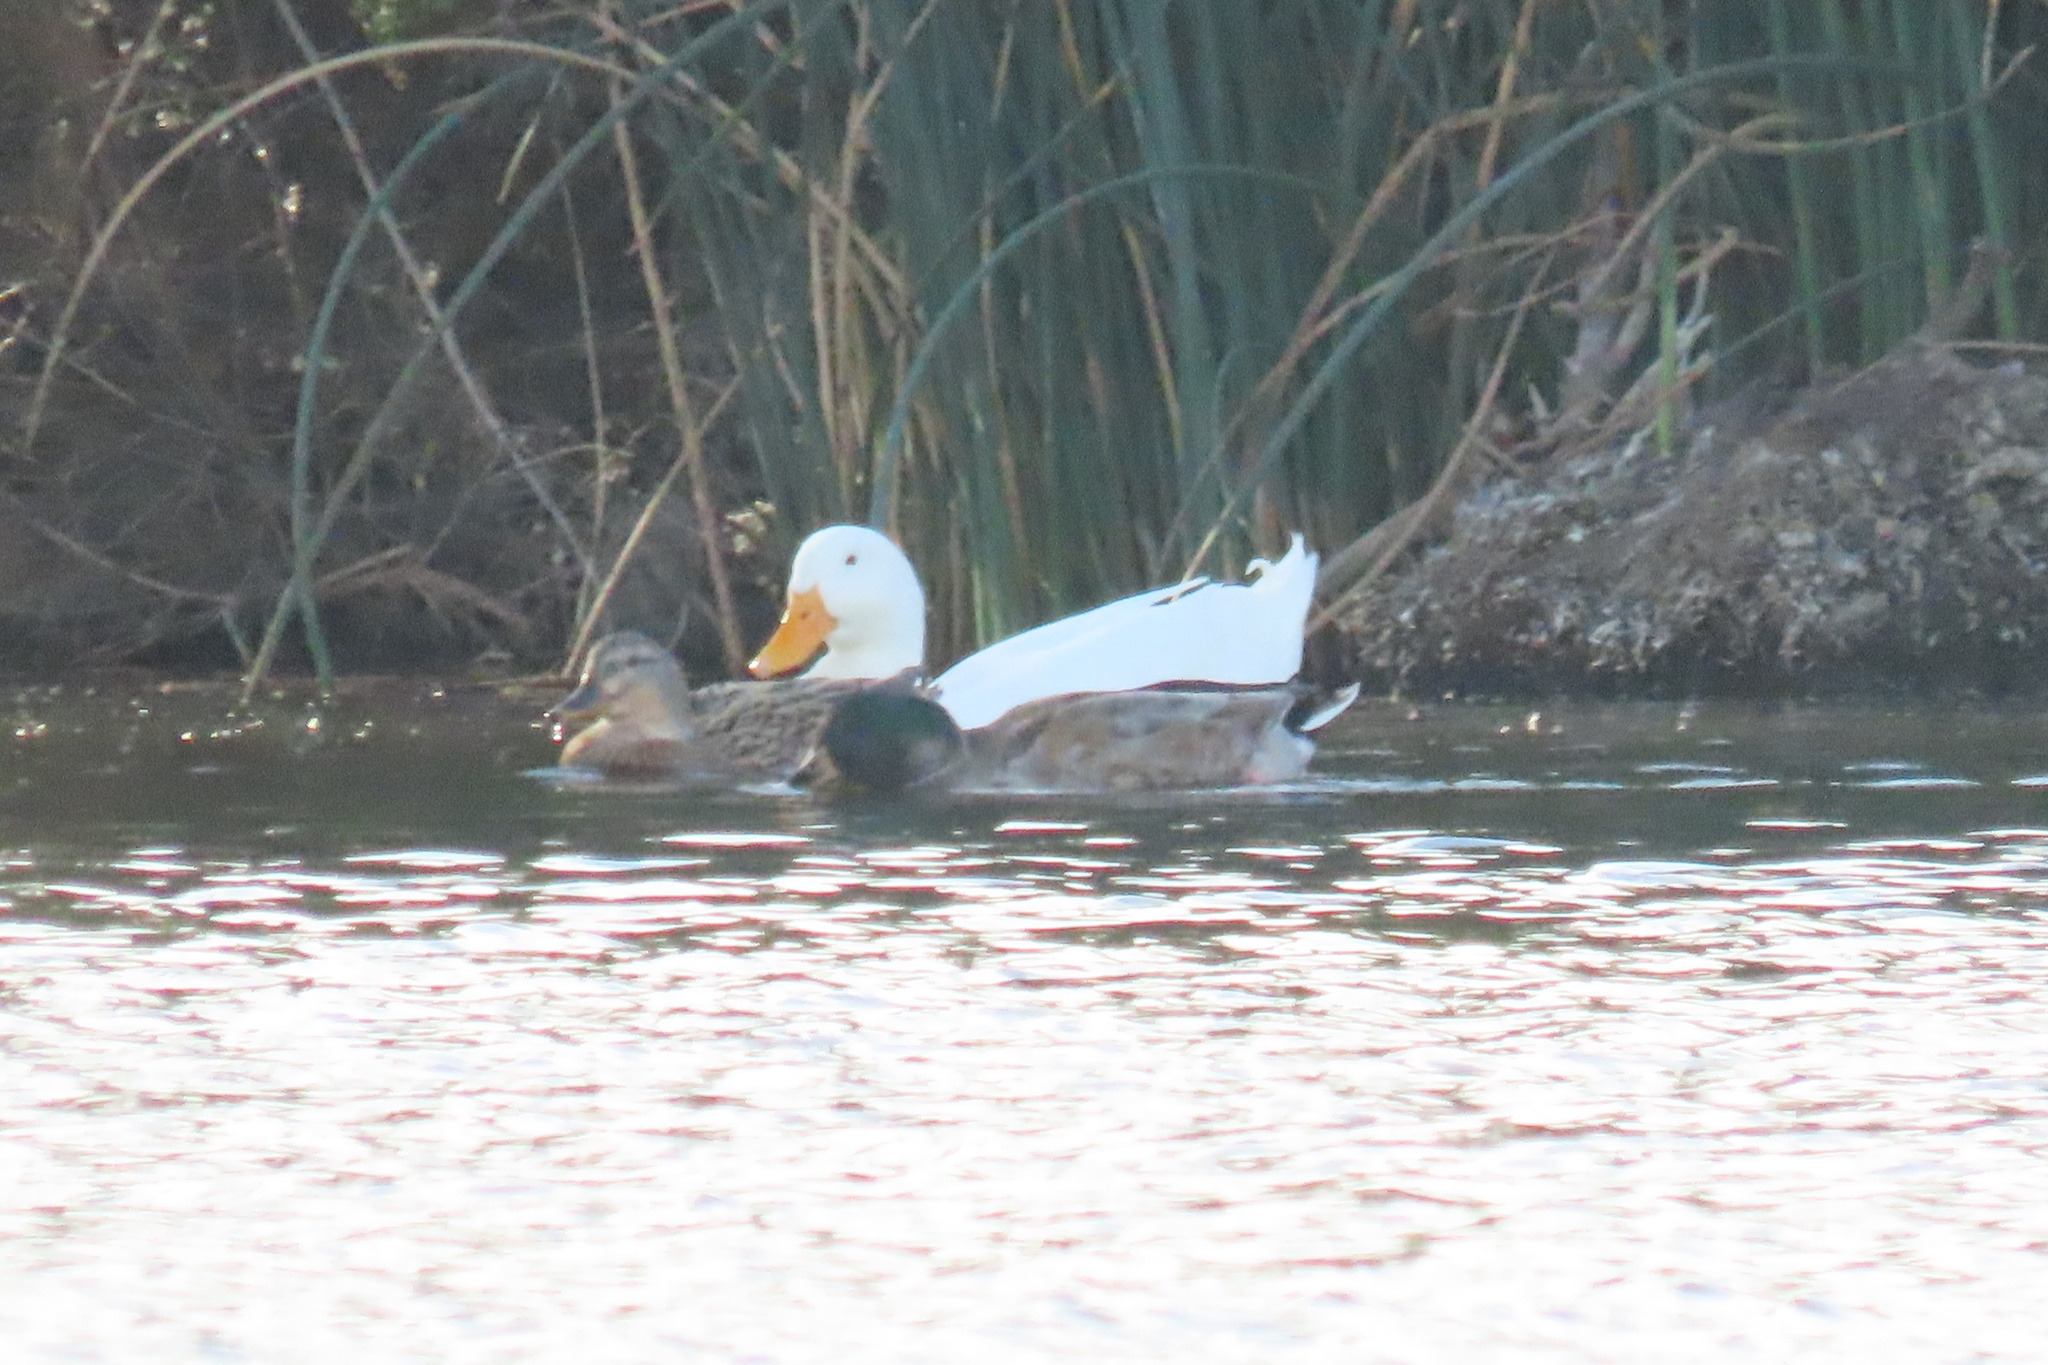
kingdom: Animalia
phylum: Chordata
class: Aves
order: Anseriformes
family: Anatidae
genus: Anas
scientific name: Anas platyrhynchos
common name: Mallard
